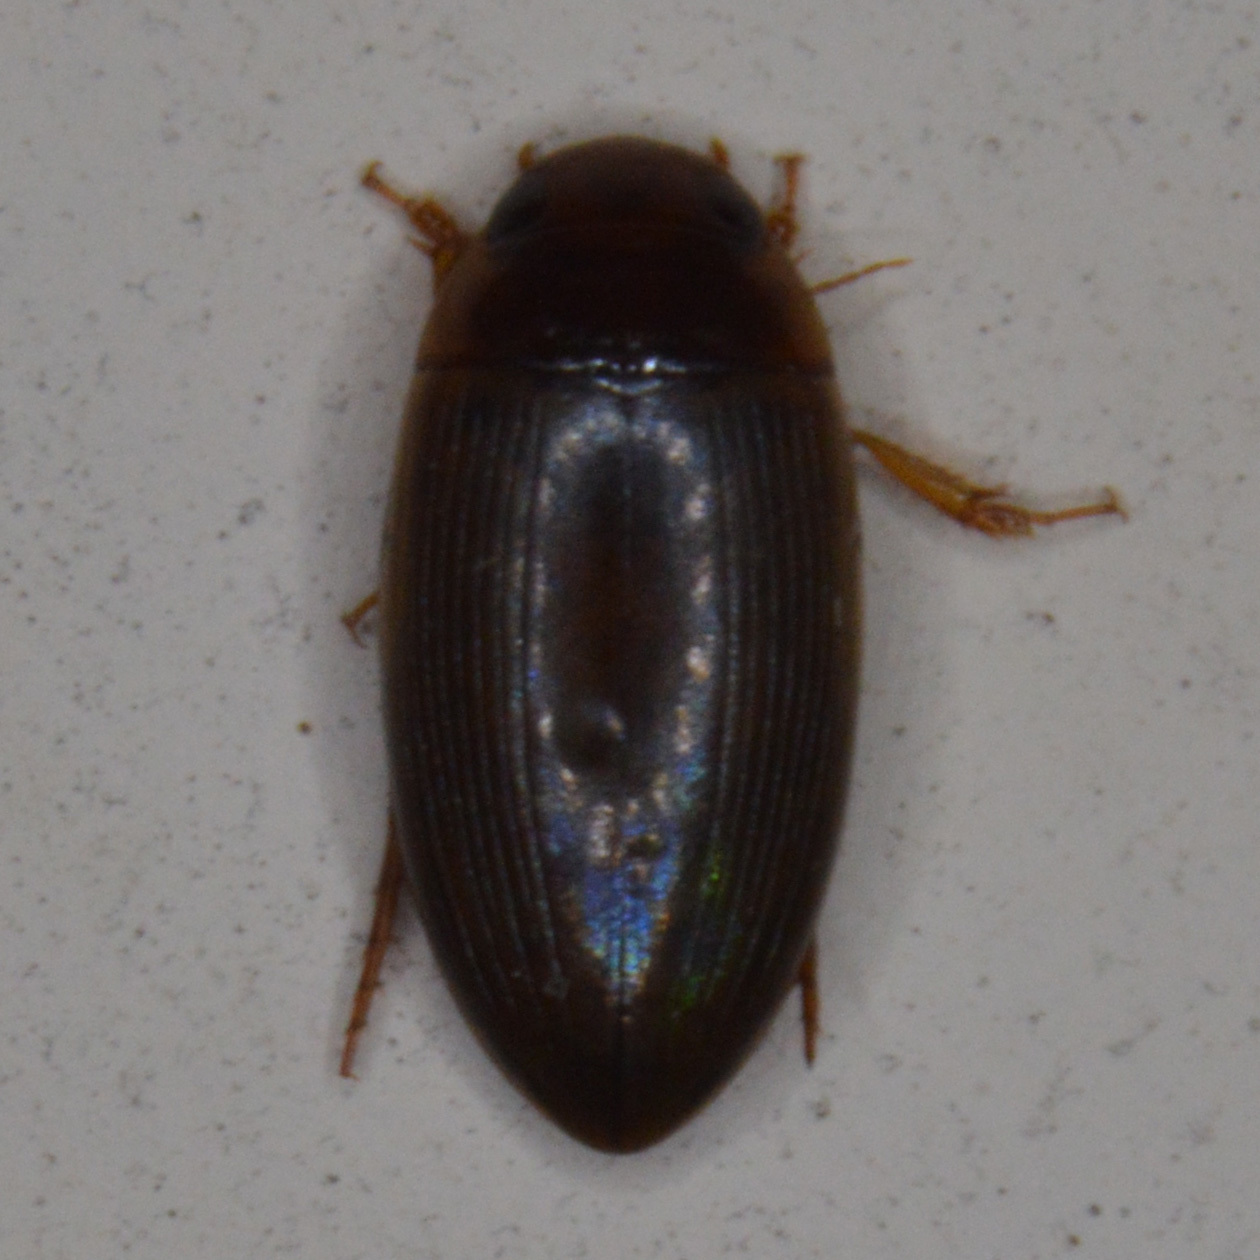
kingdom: Animalia
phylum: Arthropoda
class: Insecta
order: Coleoptera
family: Dytiscidae
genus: Copelatus
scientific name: Copelatus chevrolati
